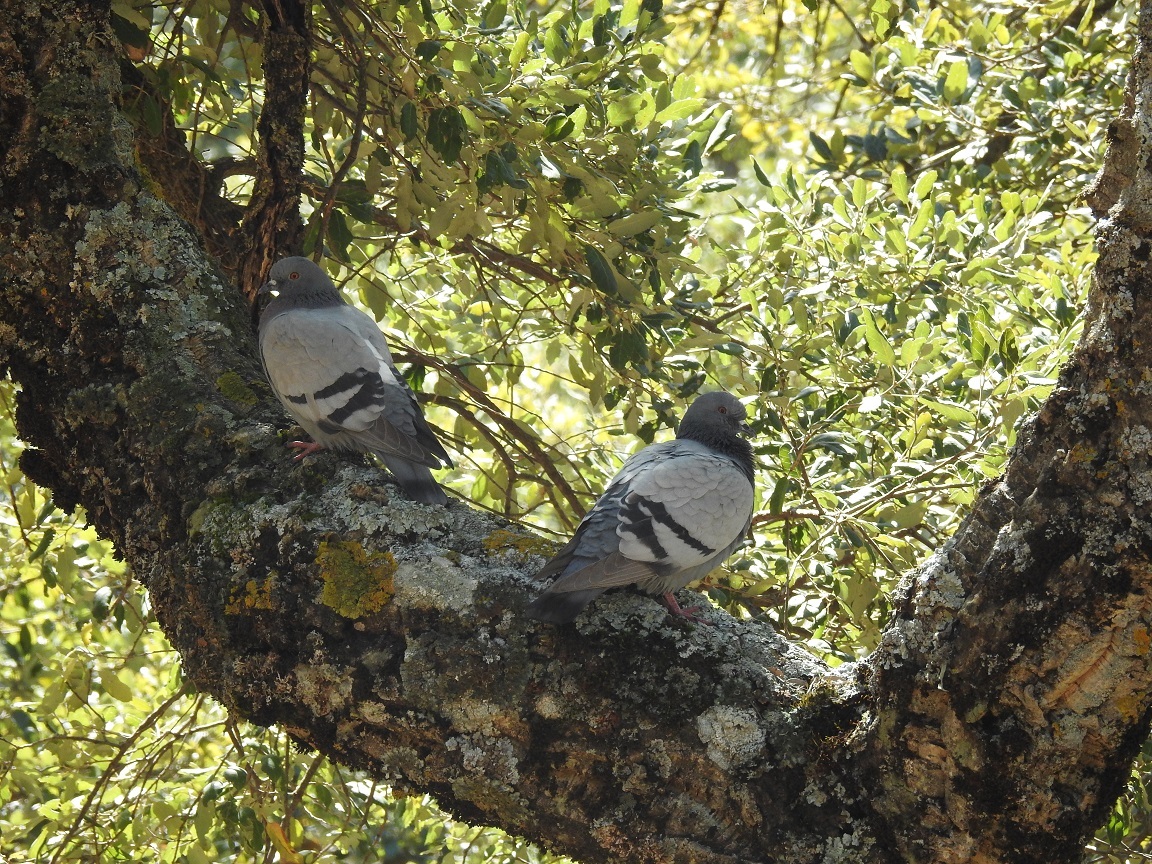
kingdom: Animalia
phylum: Chordata
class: Aves
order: Columbiformes
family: Columbidae
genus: Columba
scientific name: Columba livia
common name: Rock pigeon
